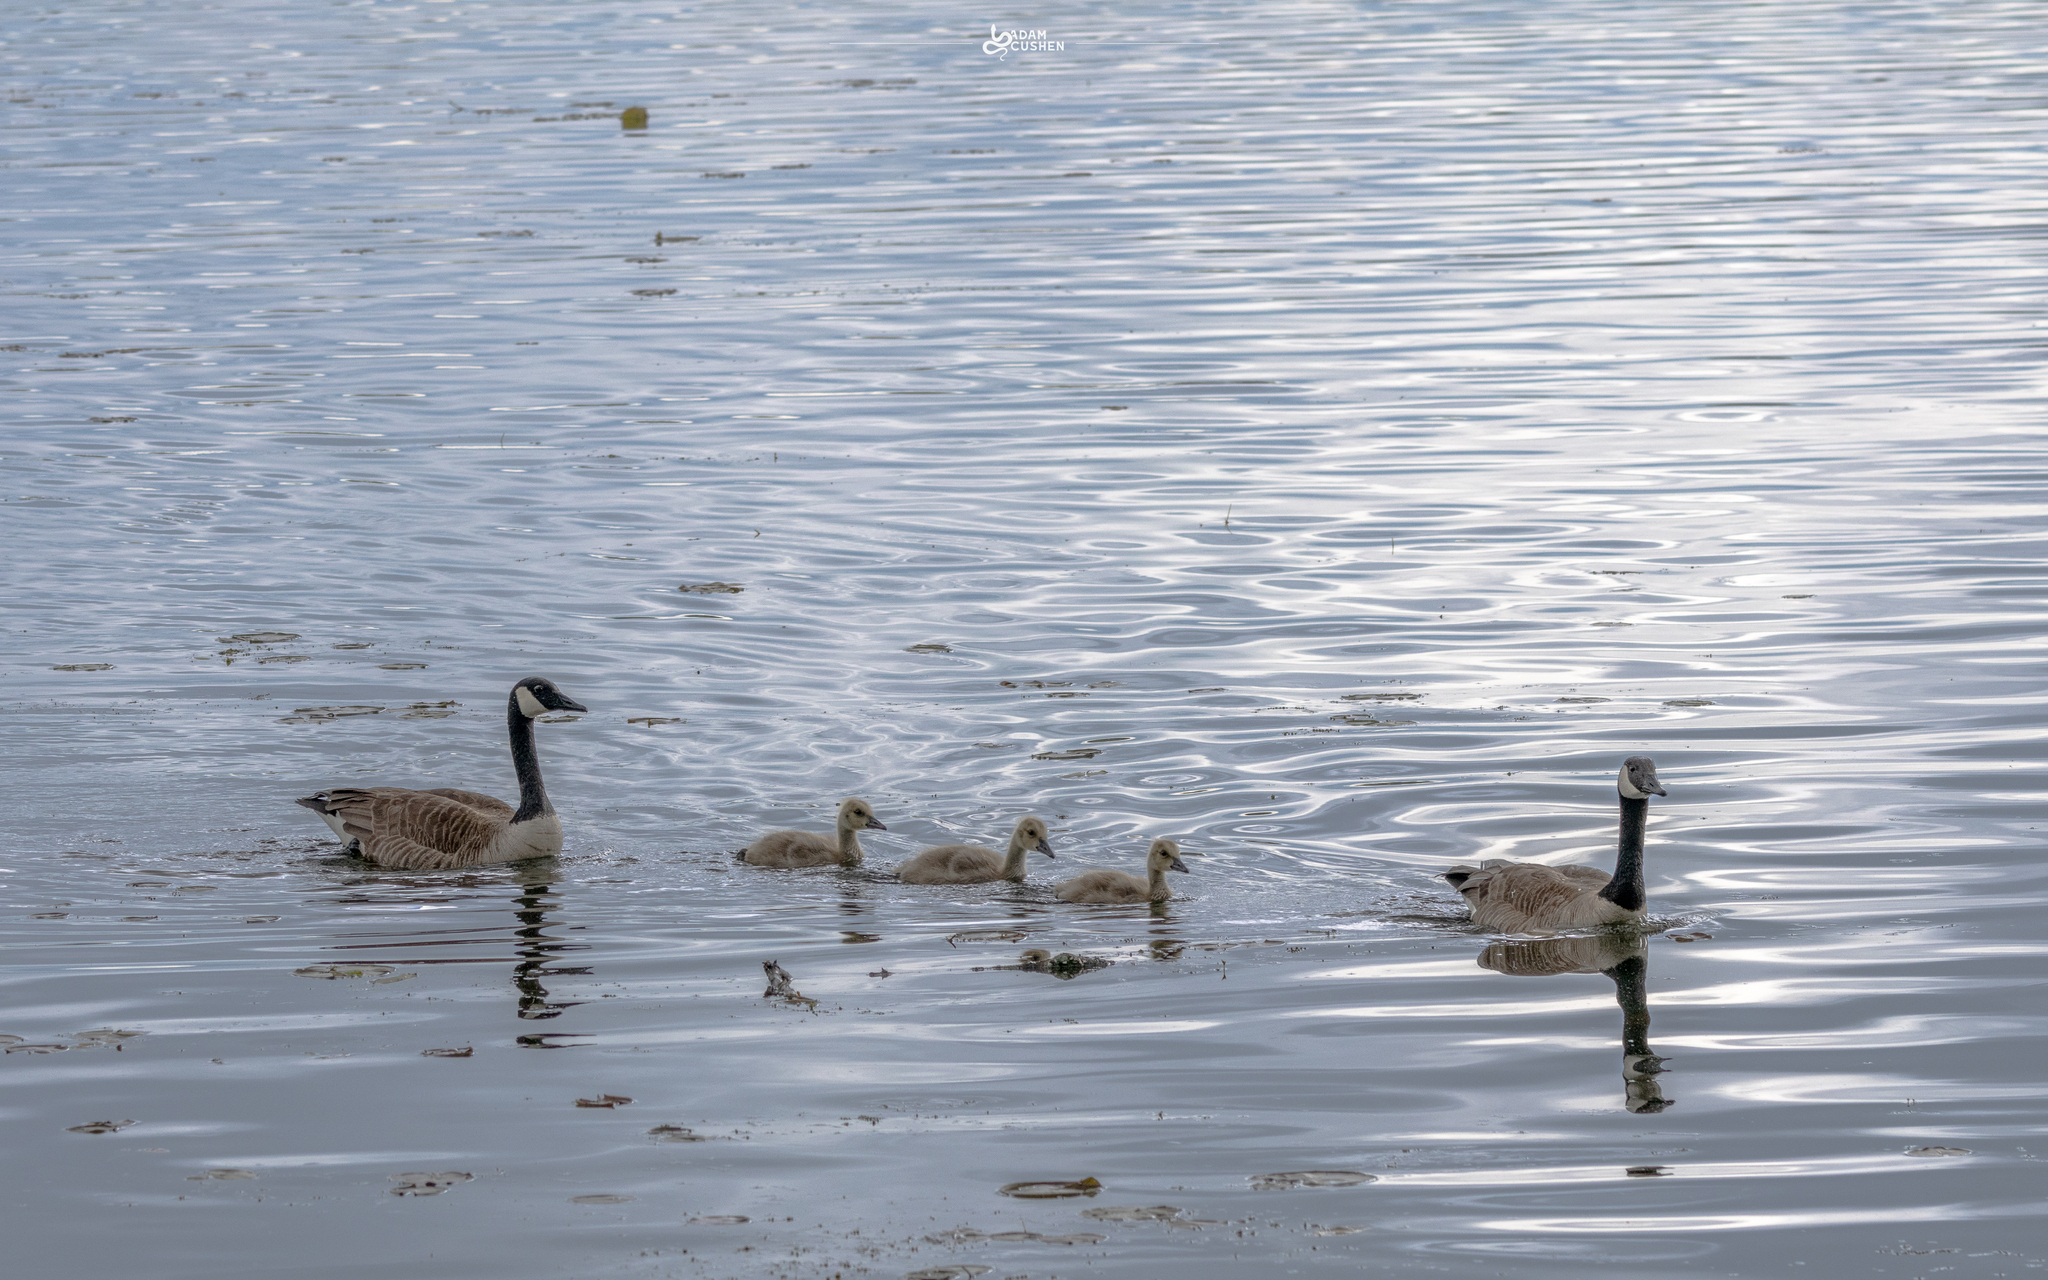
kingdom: Animalia
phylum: Chordata
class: Aves
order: Anseriformes
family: Anatidae
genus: Branta
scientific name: Branta canadensis
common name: Canada goose
